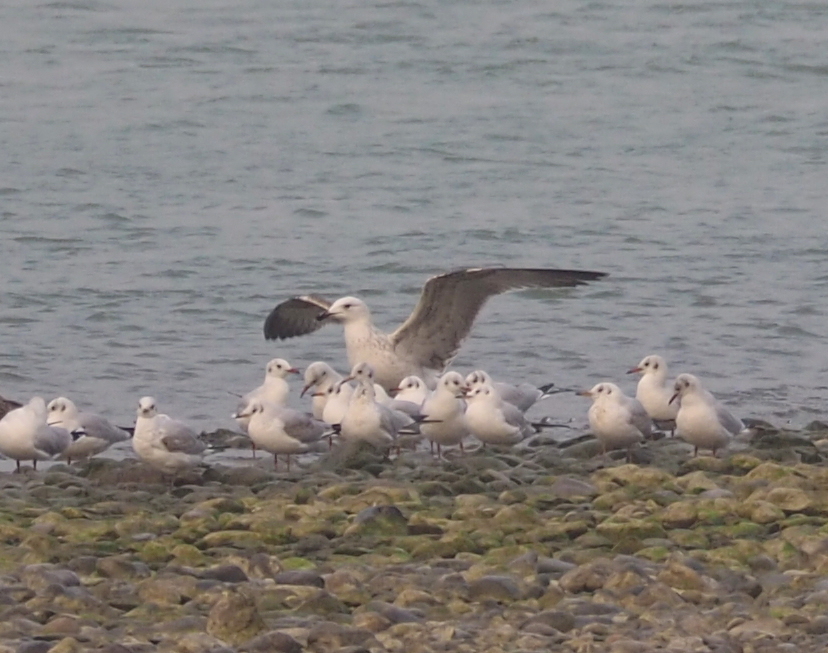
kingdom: Animalia
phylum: Chordata
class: Aves
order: Charadriiformes
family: Laridae
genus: Larus
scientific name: Larus cachinnans
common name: Caspian gull
